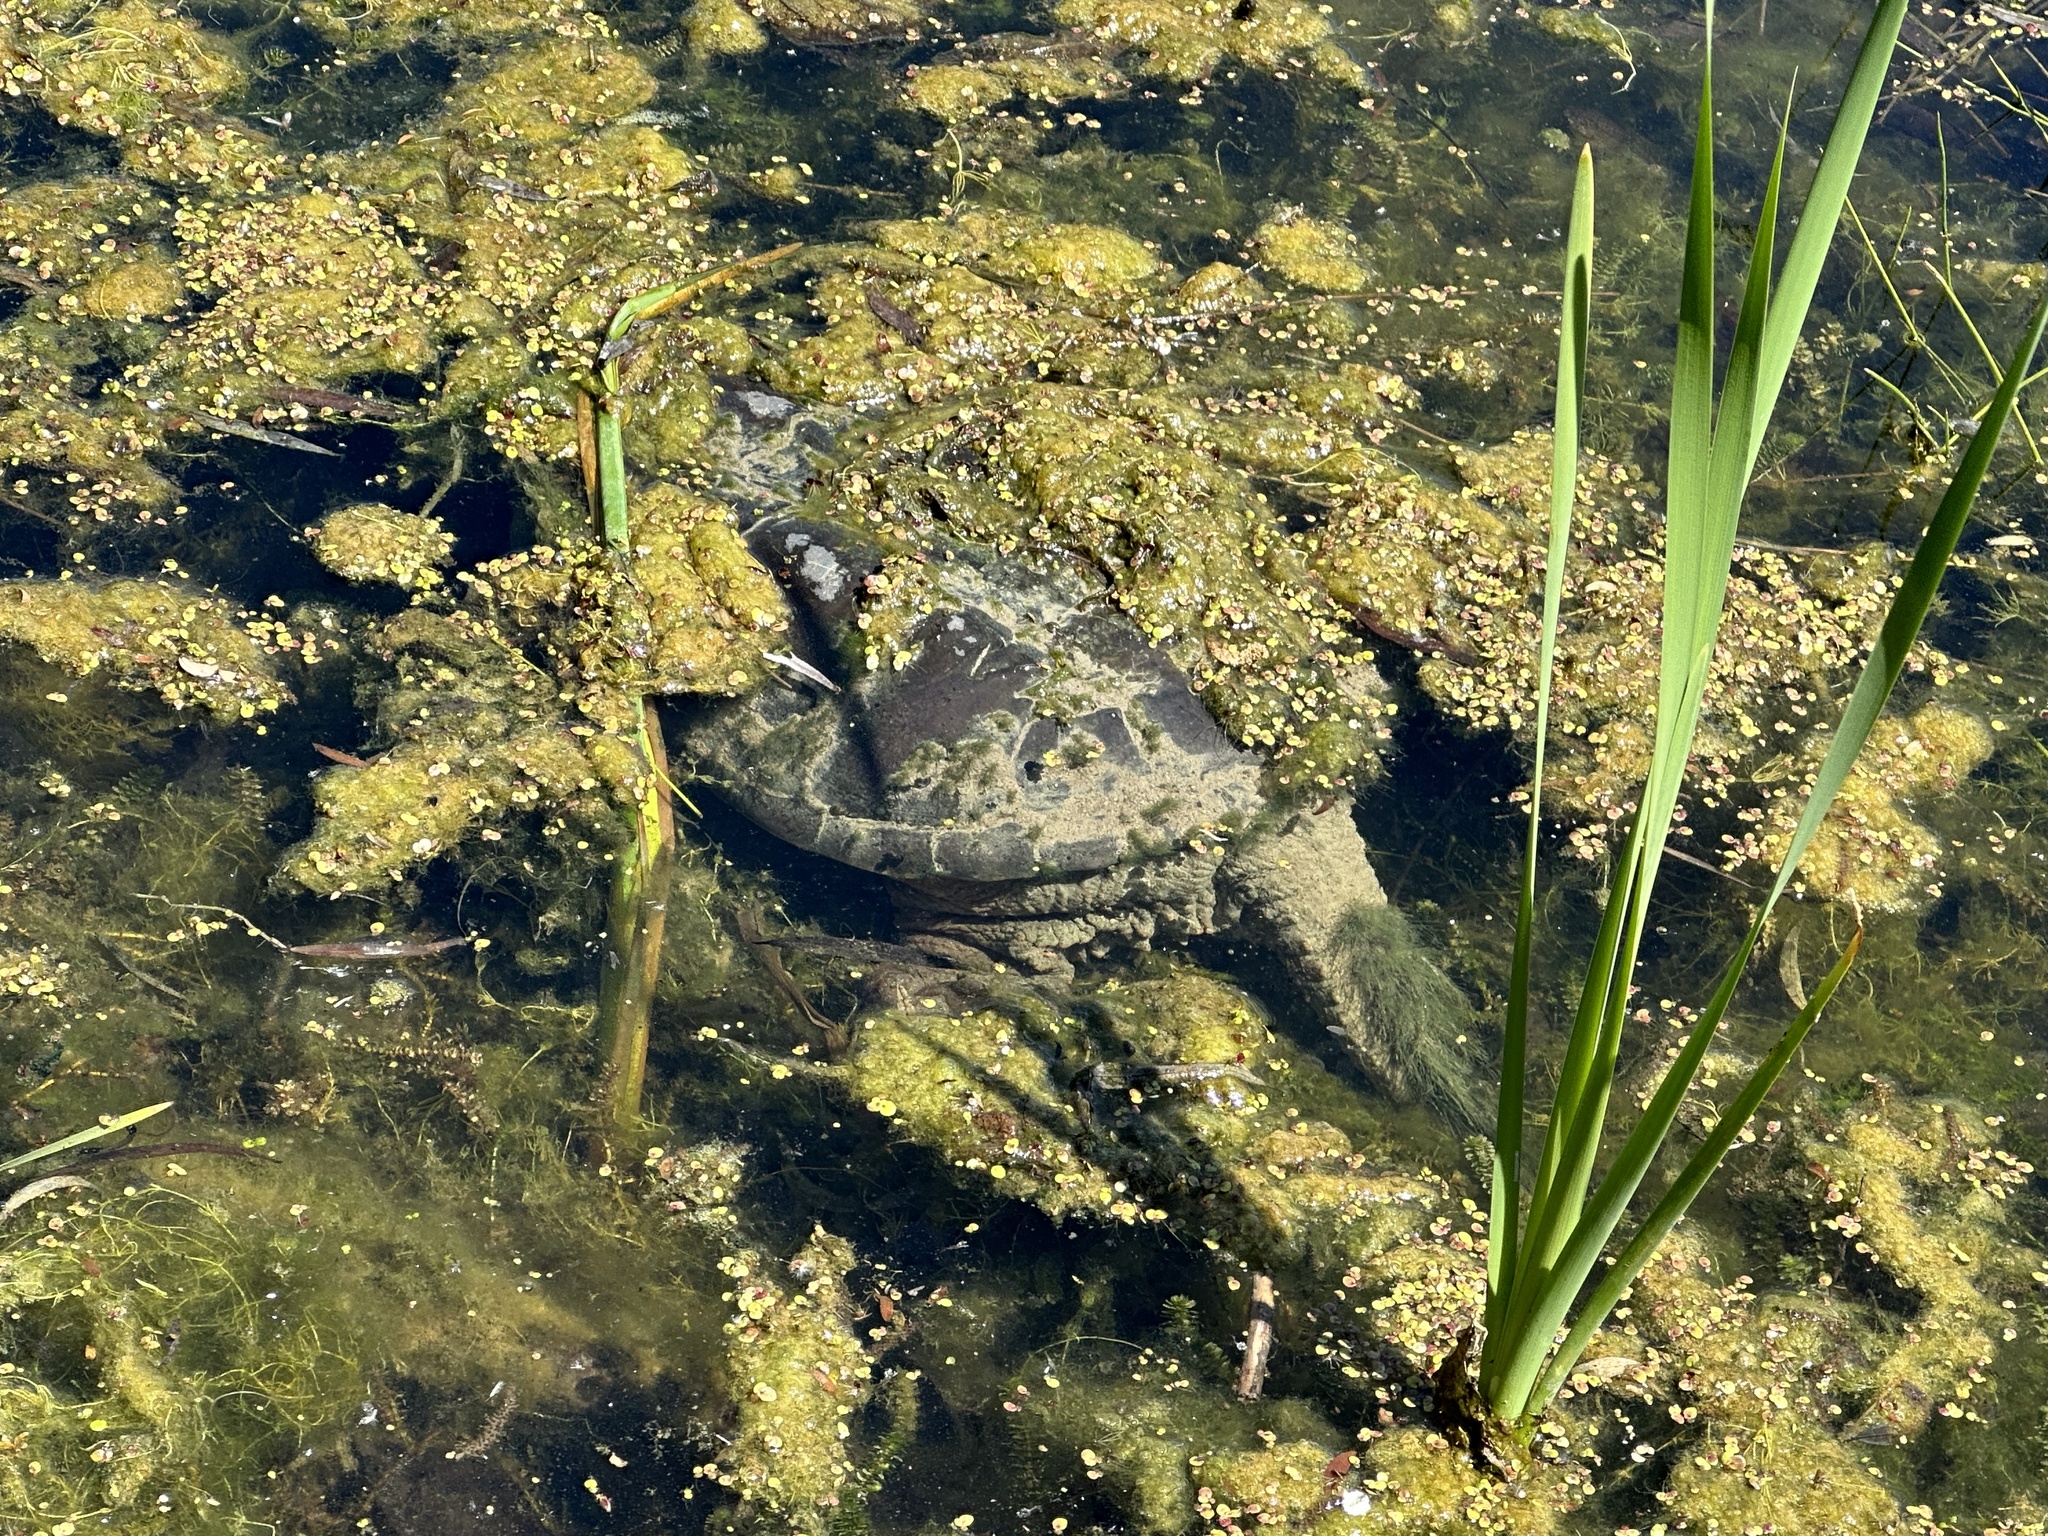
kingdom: Animalia
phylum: Chordata
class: Testudines
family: Chelydridae
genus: Chelydra
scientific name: Chelydra serpentina
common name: Common snapping turtle
